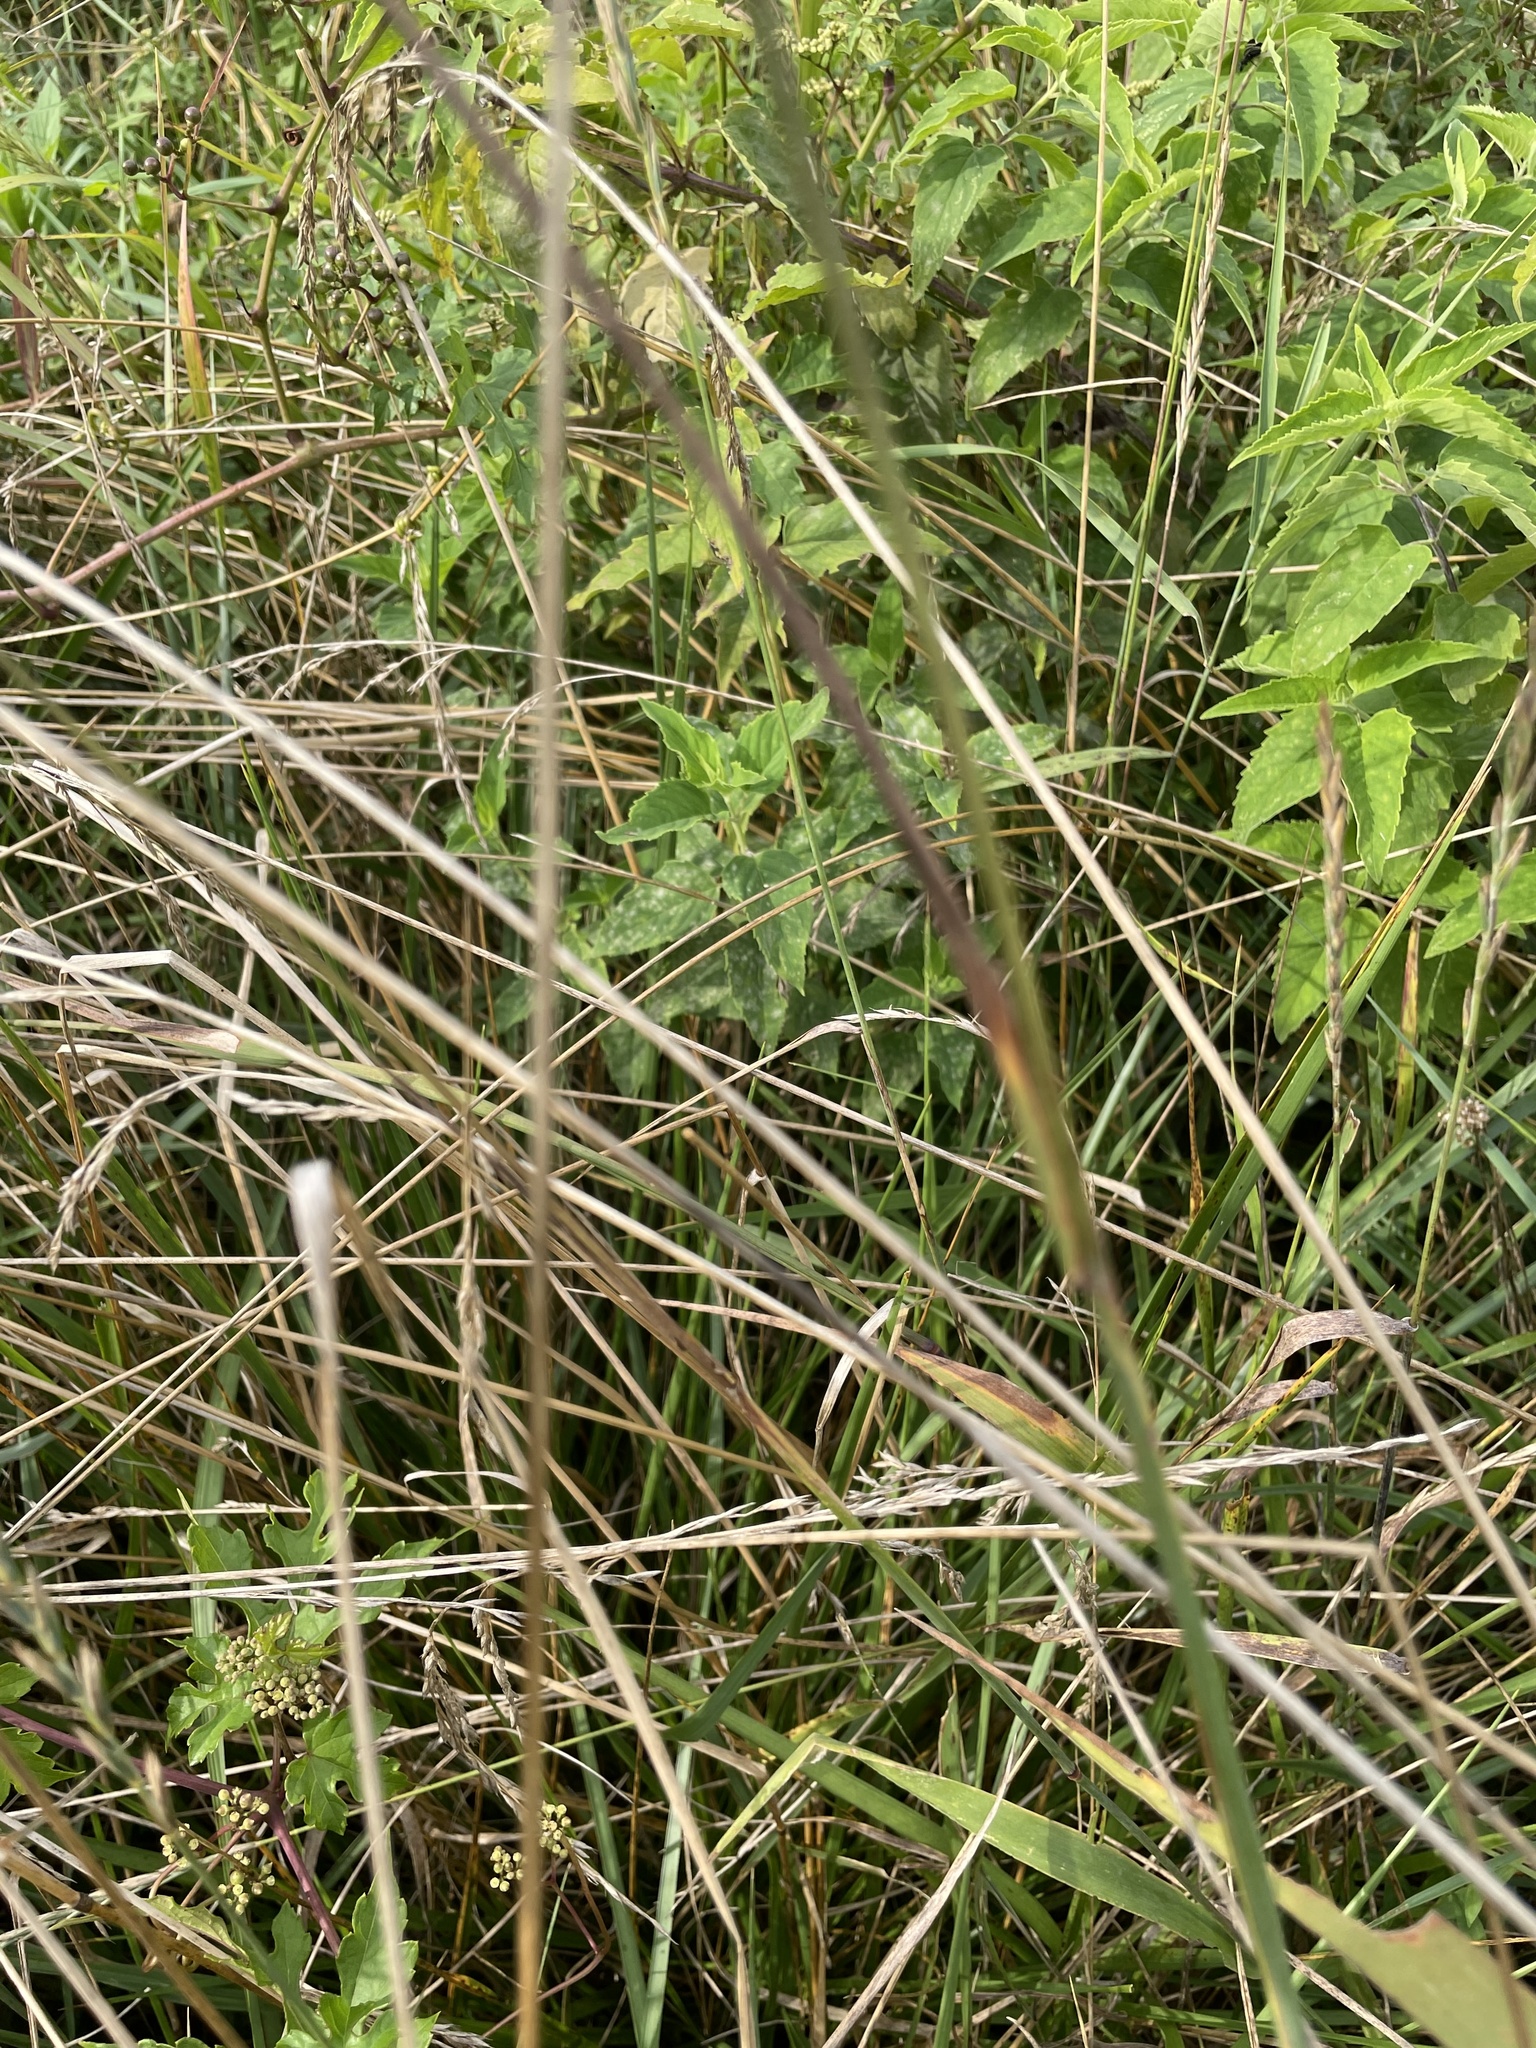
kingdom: Plantae
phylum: Tracheophyta
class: Liliopsida
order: Poales
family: Poaceae
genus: Phleum
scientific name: Phleum pratense
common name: Timothy grass
